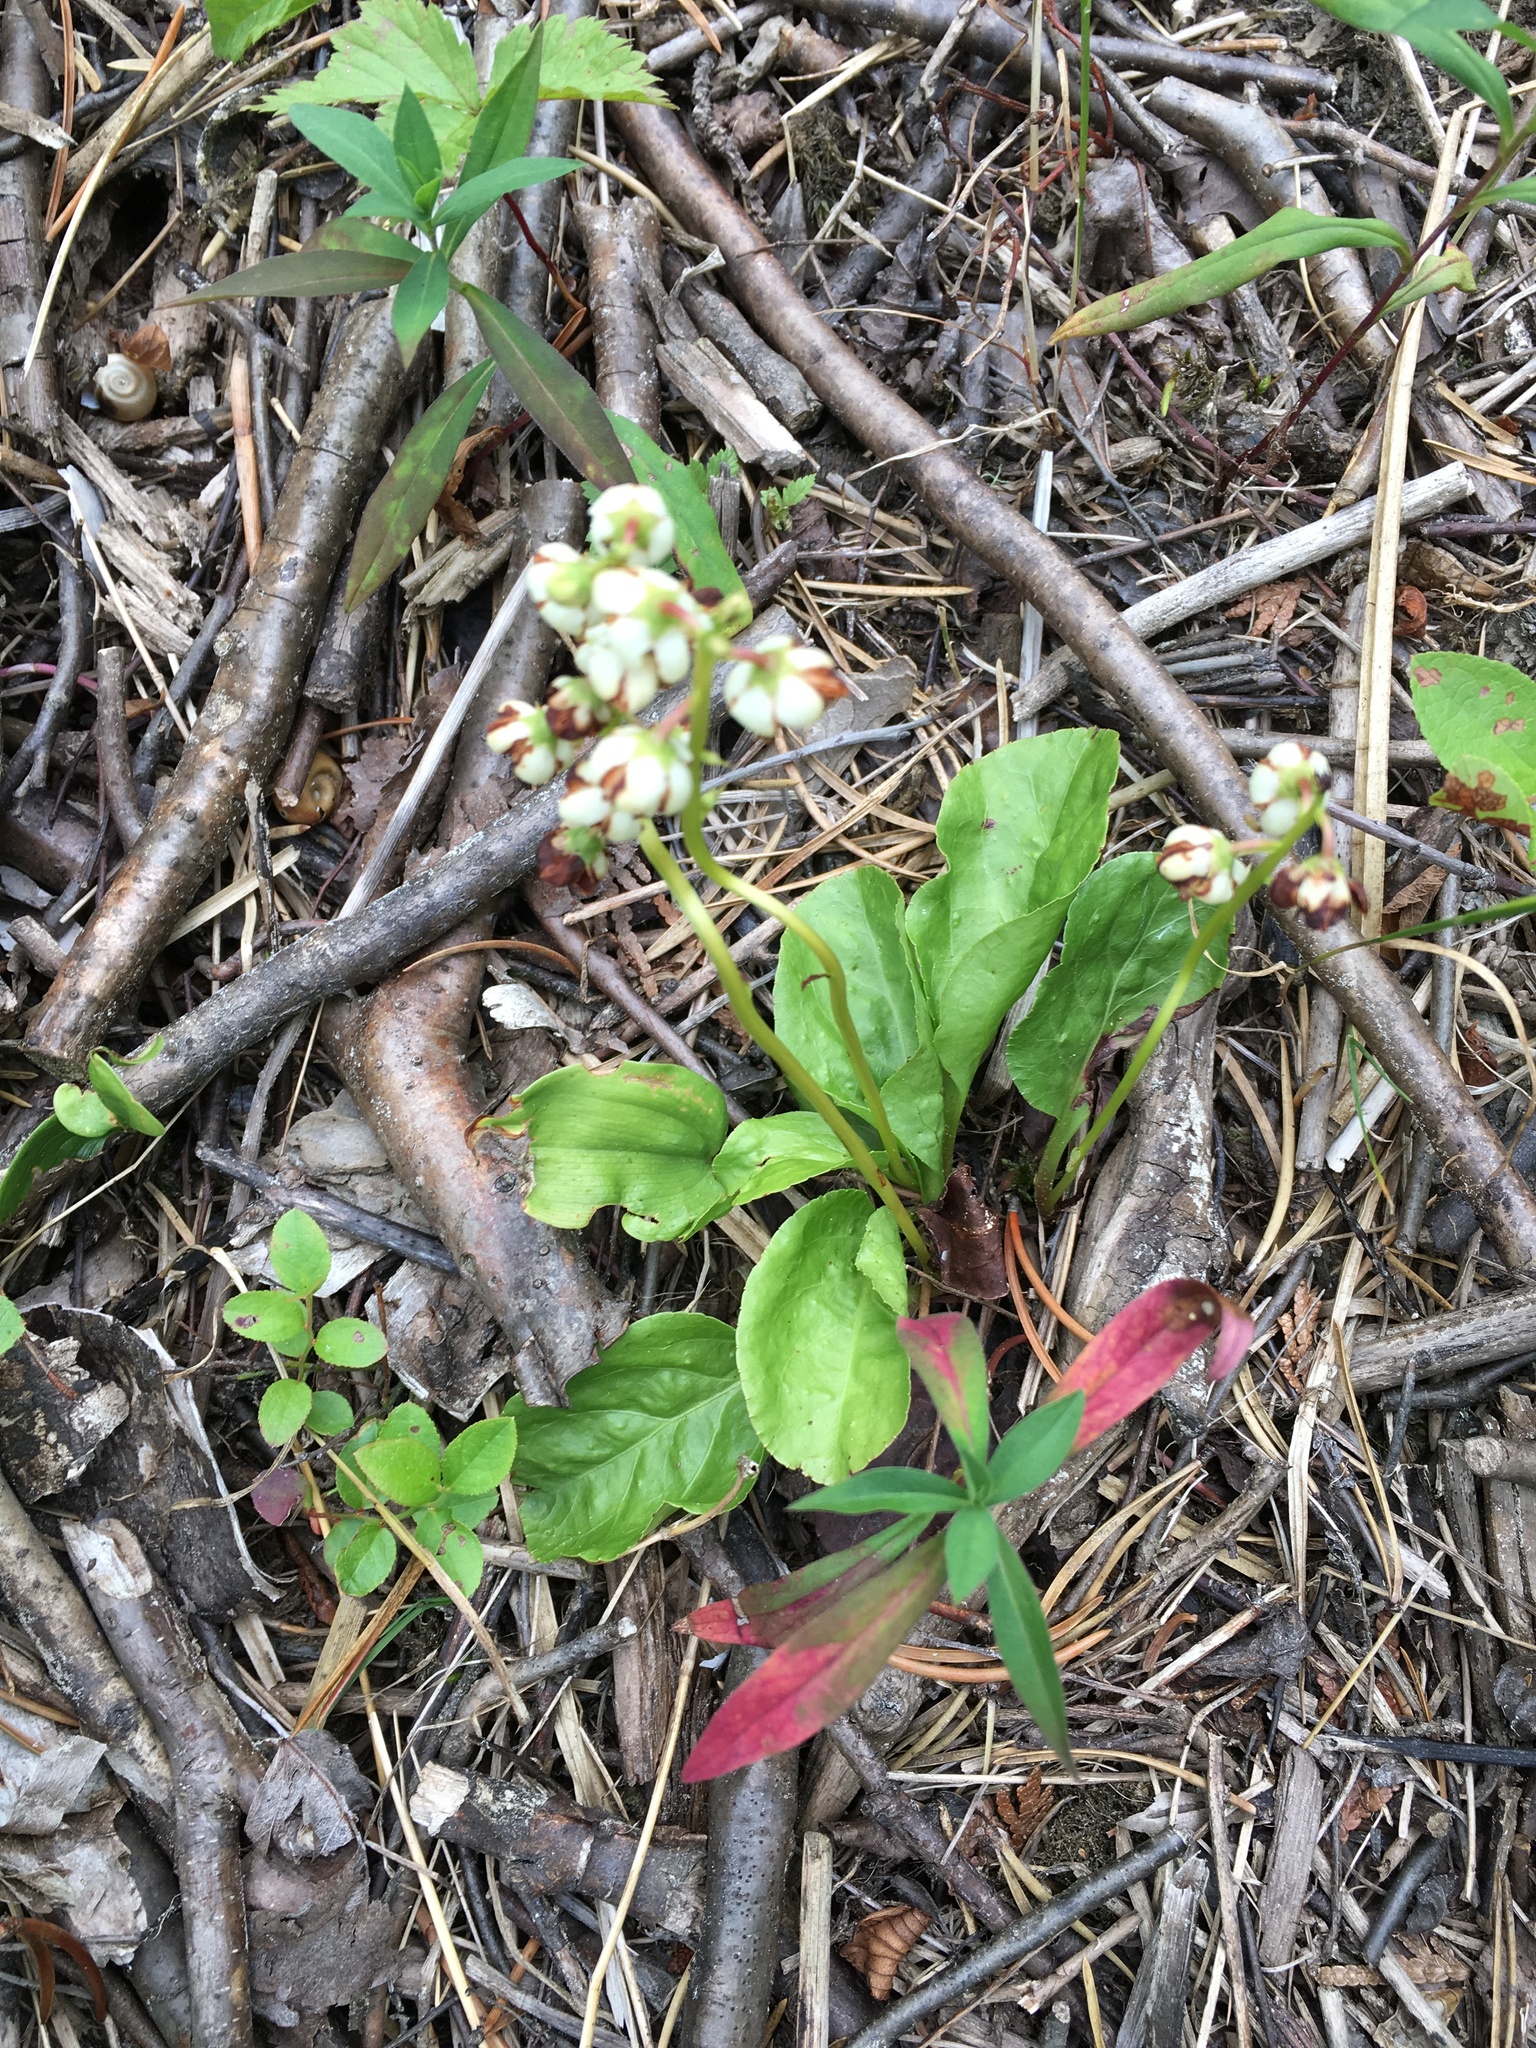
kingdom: Plantae
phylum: Tracheophyta
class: Magnoliopsida
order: Ericales
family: Ericaceae
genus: Pyrola
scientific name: Pyrola elliptica
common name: Shinleaf
